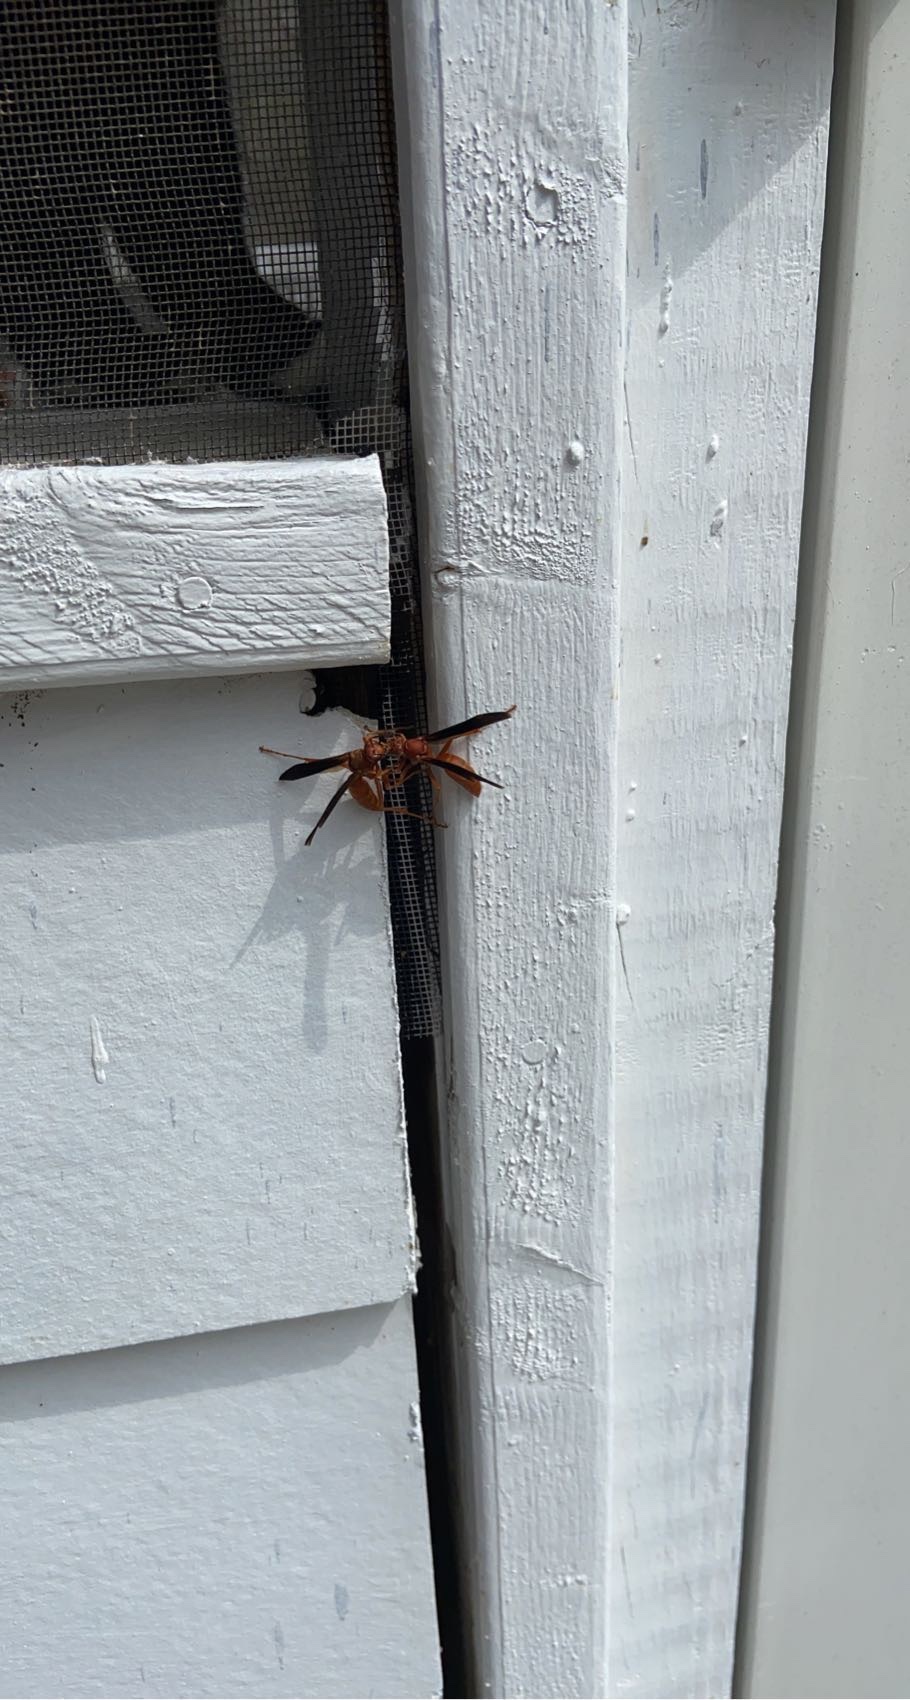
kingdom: Animalia
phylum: Arthropoda
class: Insecta
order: Hymenoptera
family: Vespidae
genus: Fuscopolistes
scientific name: Fuscopolistes
